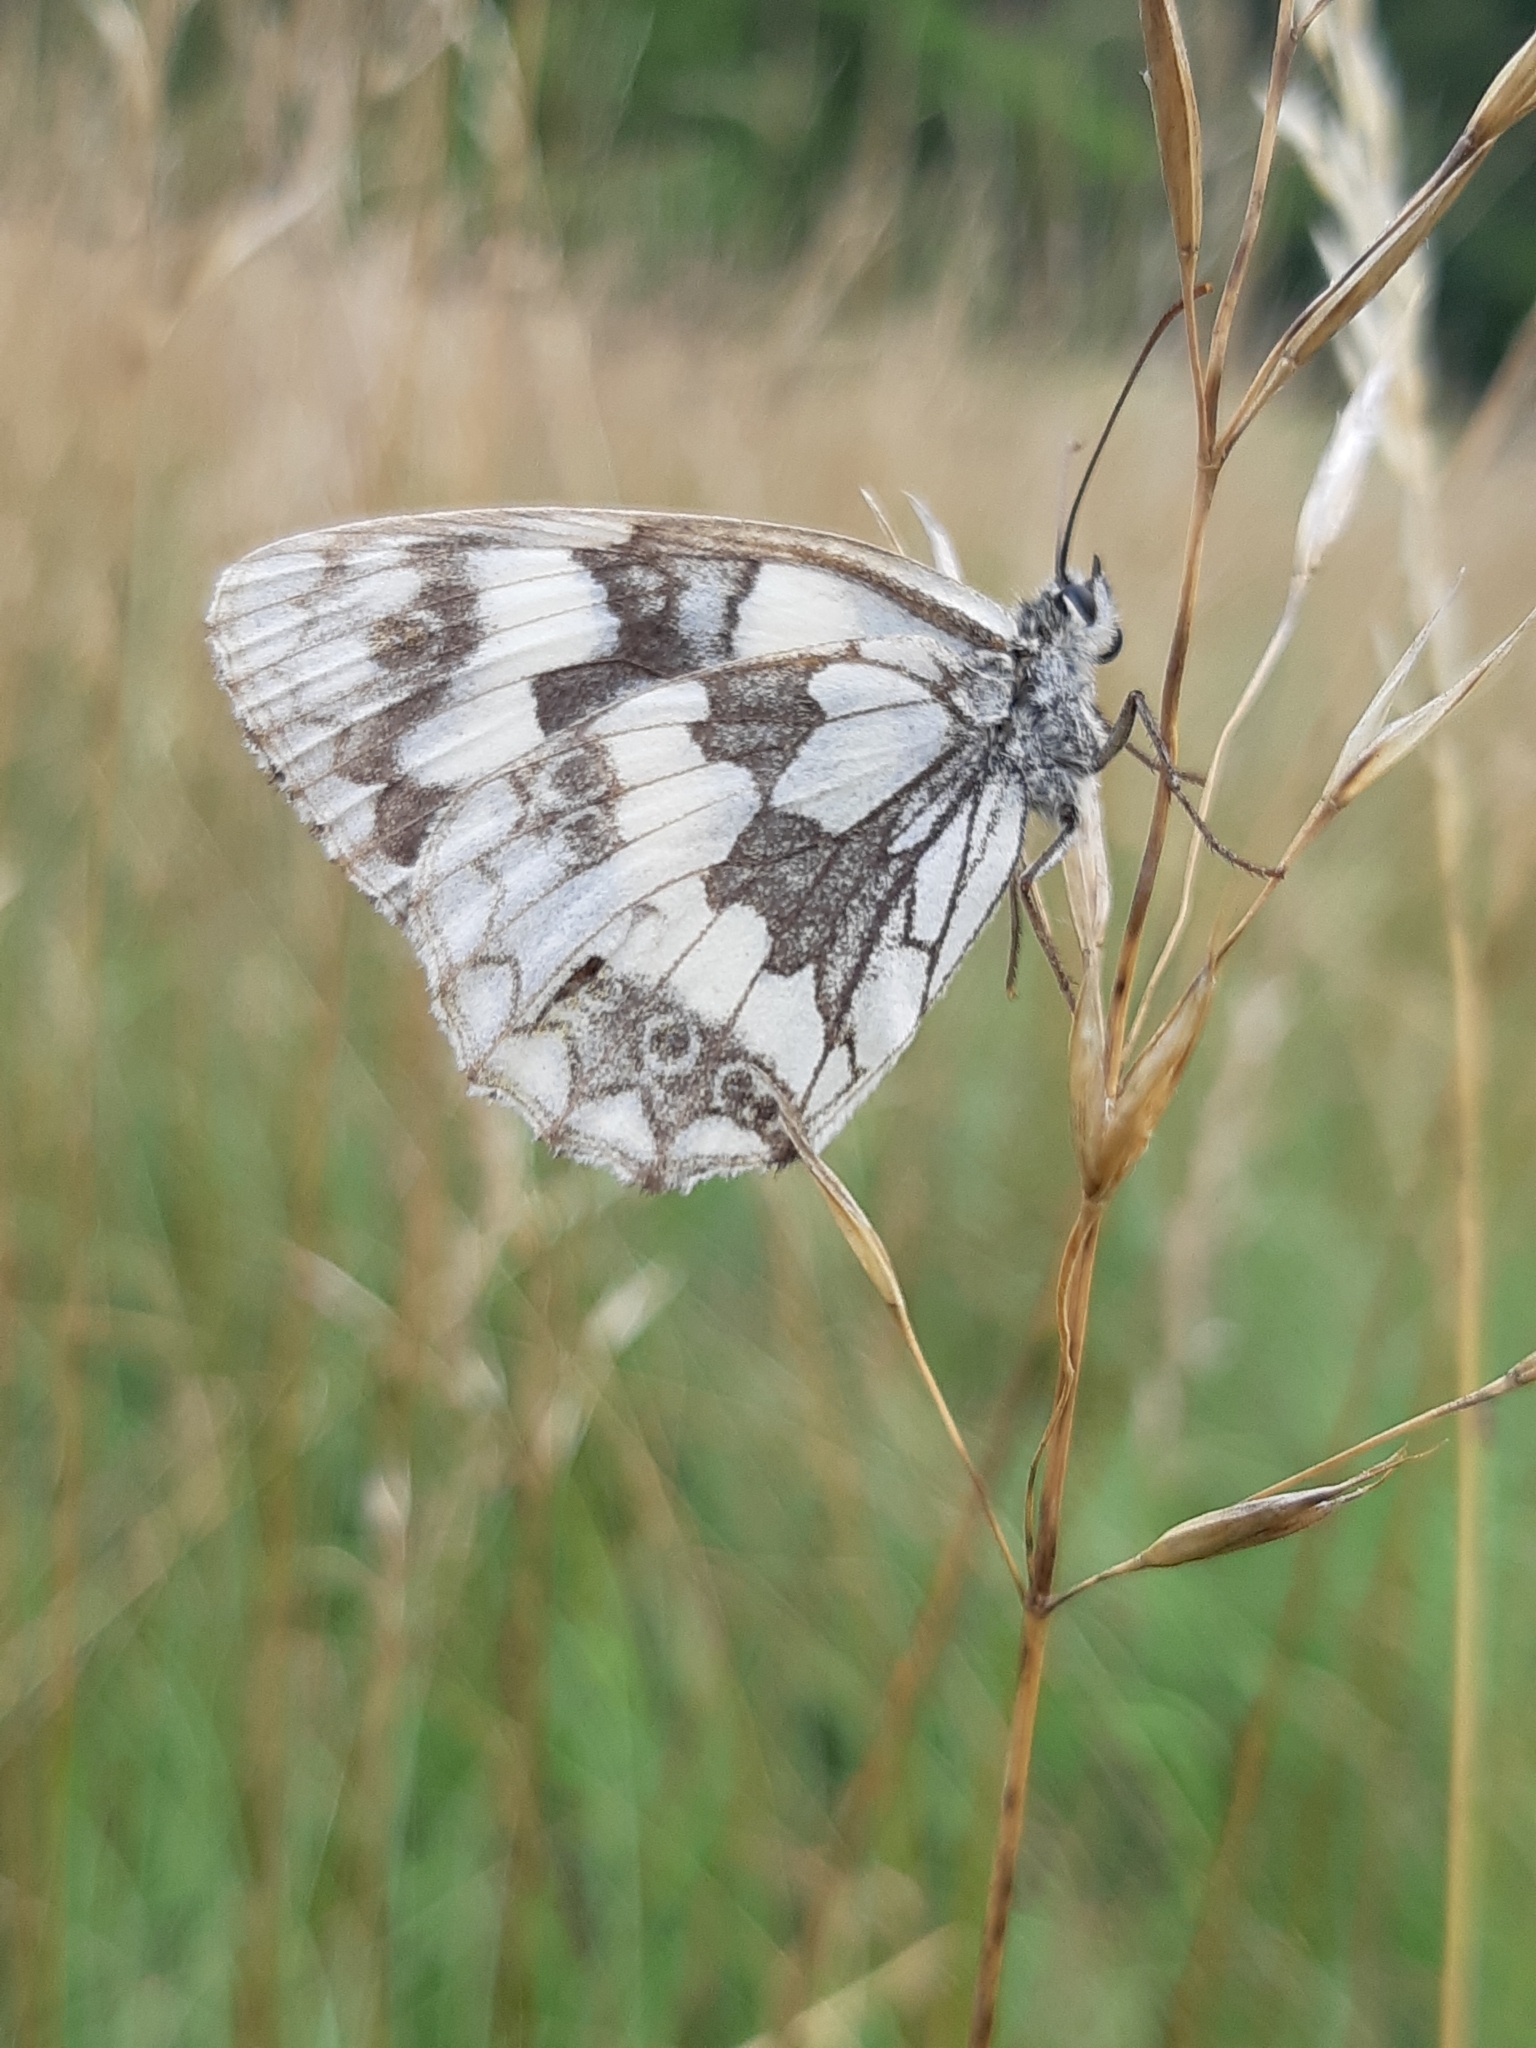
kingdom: Animalia
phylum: Arthropoda
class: Insecta
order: Lepidoptera
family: Nymphalidae
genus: Melanargia
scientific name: Melanargia galathea
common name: Marbled white
